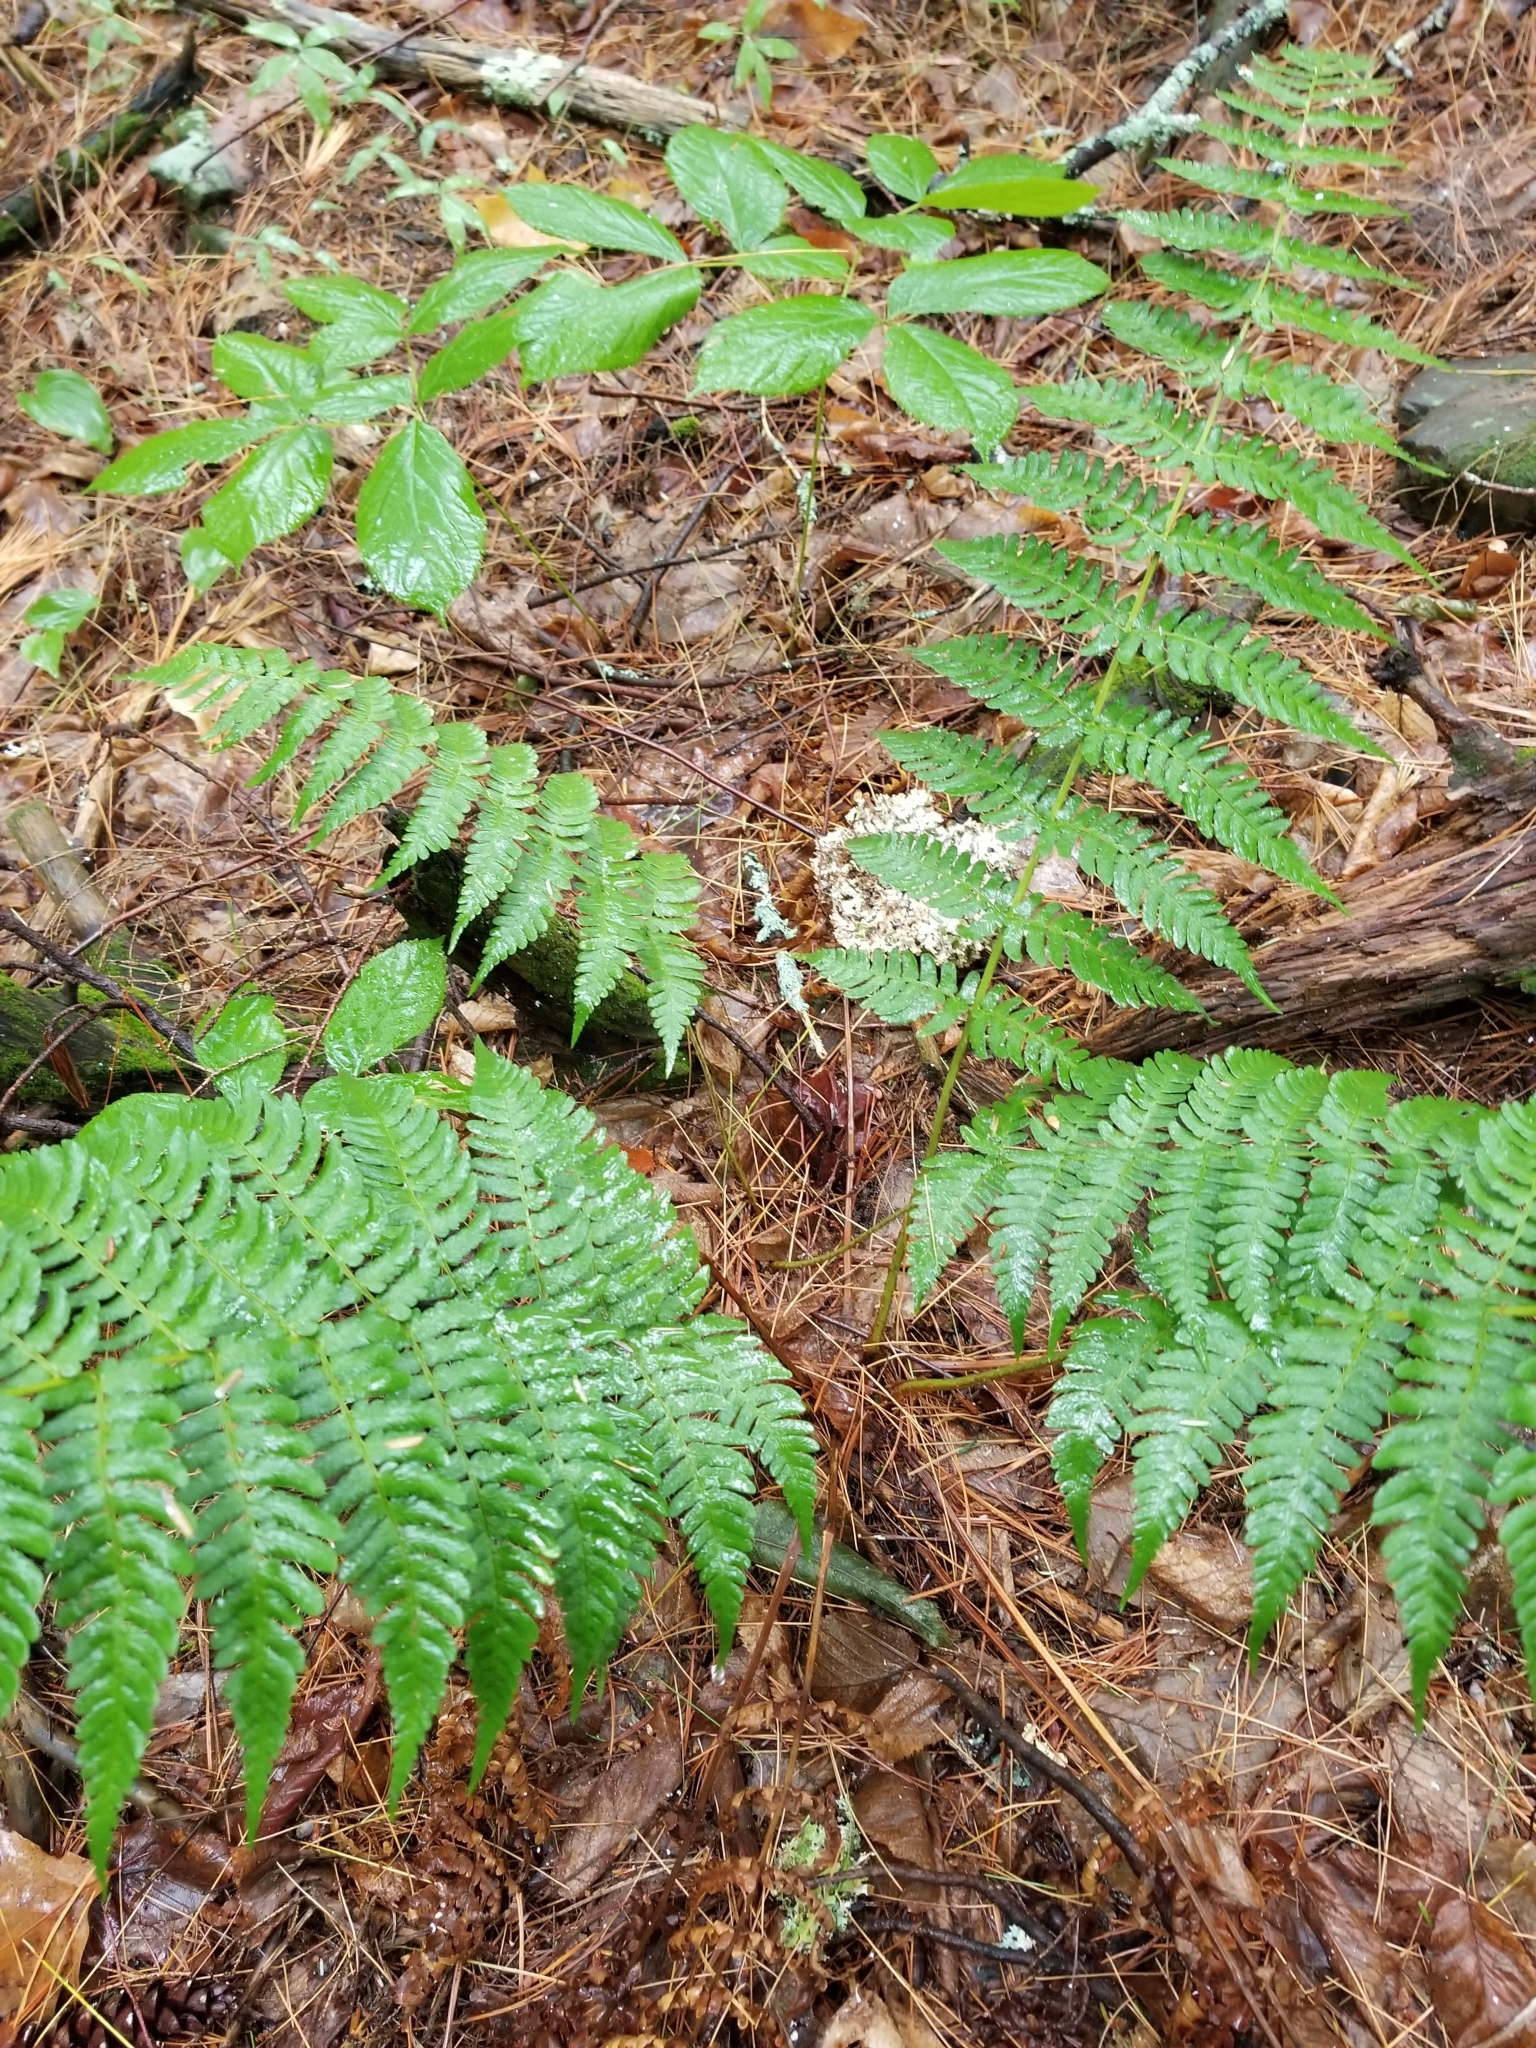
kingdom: Plantae
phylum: Tracheophyta
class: Polypodiopsida
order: Polypodiales
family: Dryopteridaceae
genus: Dryopteris
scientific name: Dryopteris marginalis
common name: Marginal wood fern
